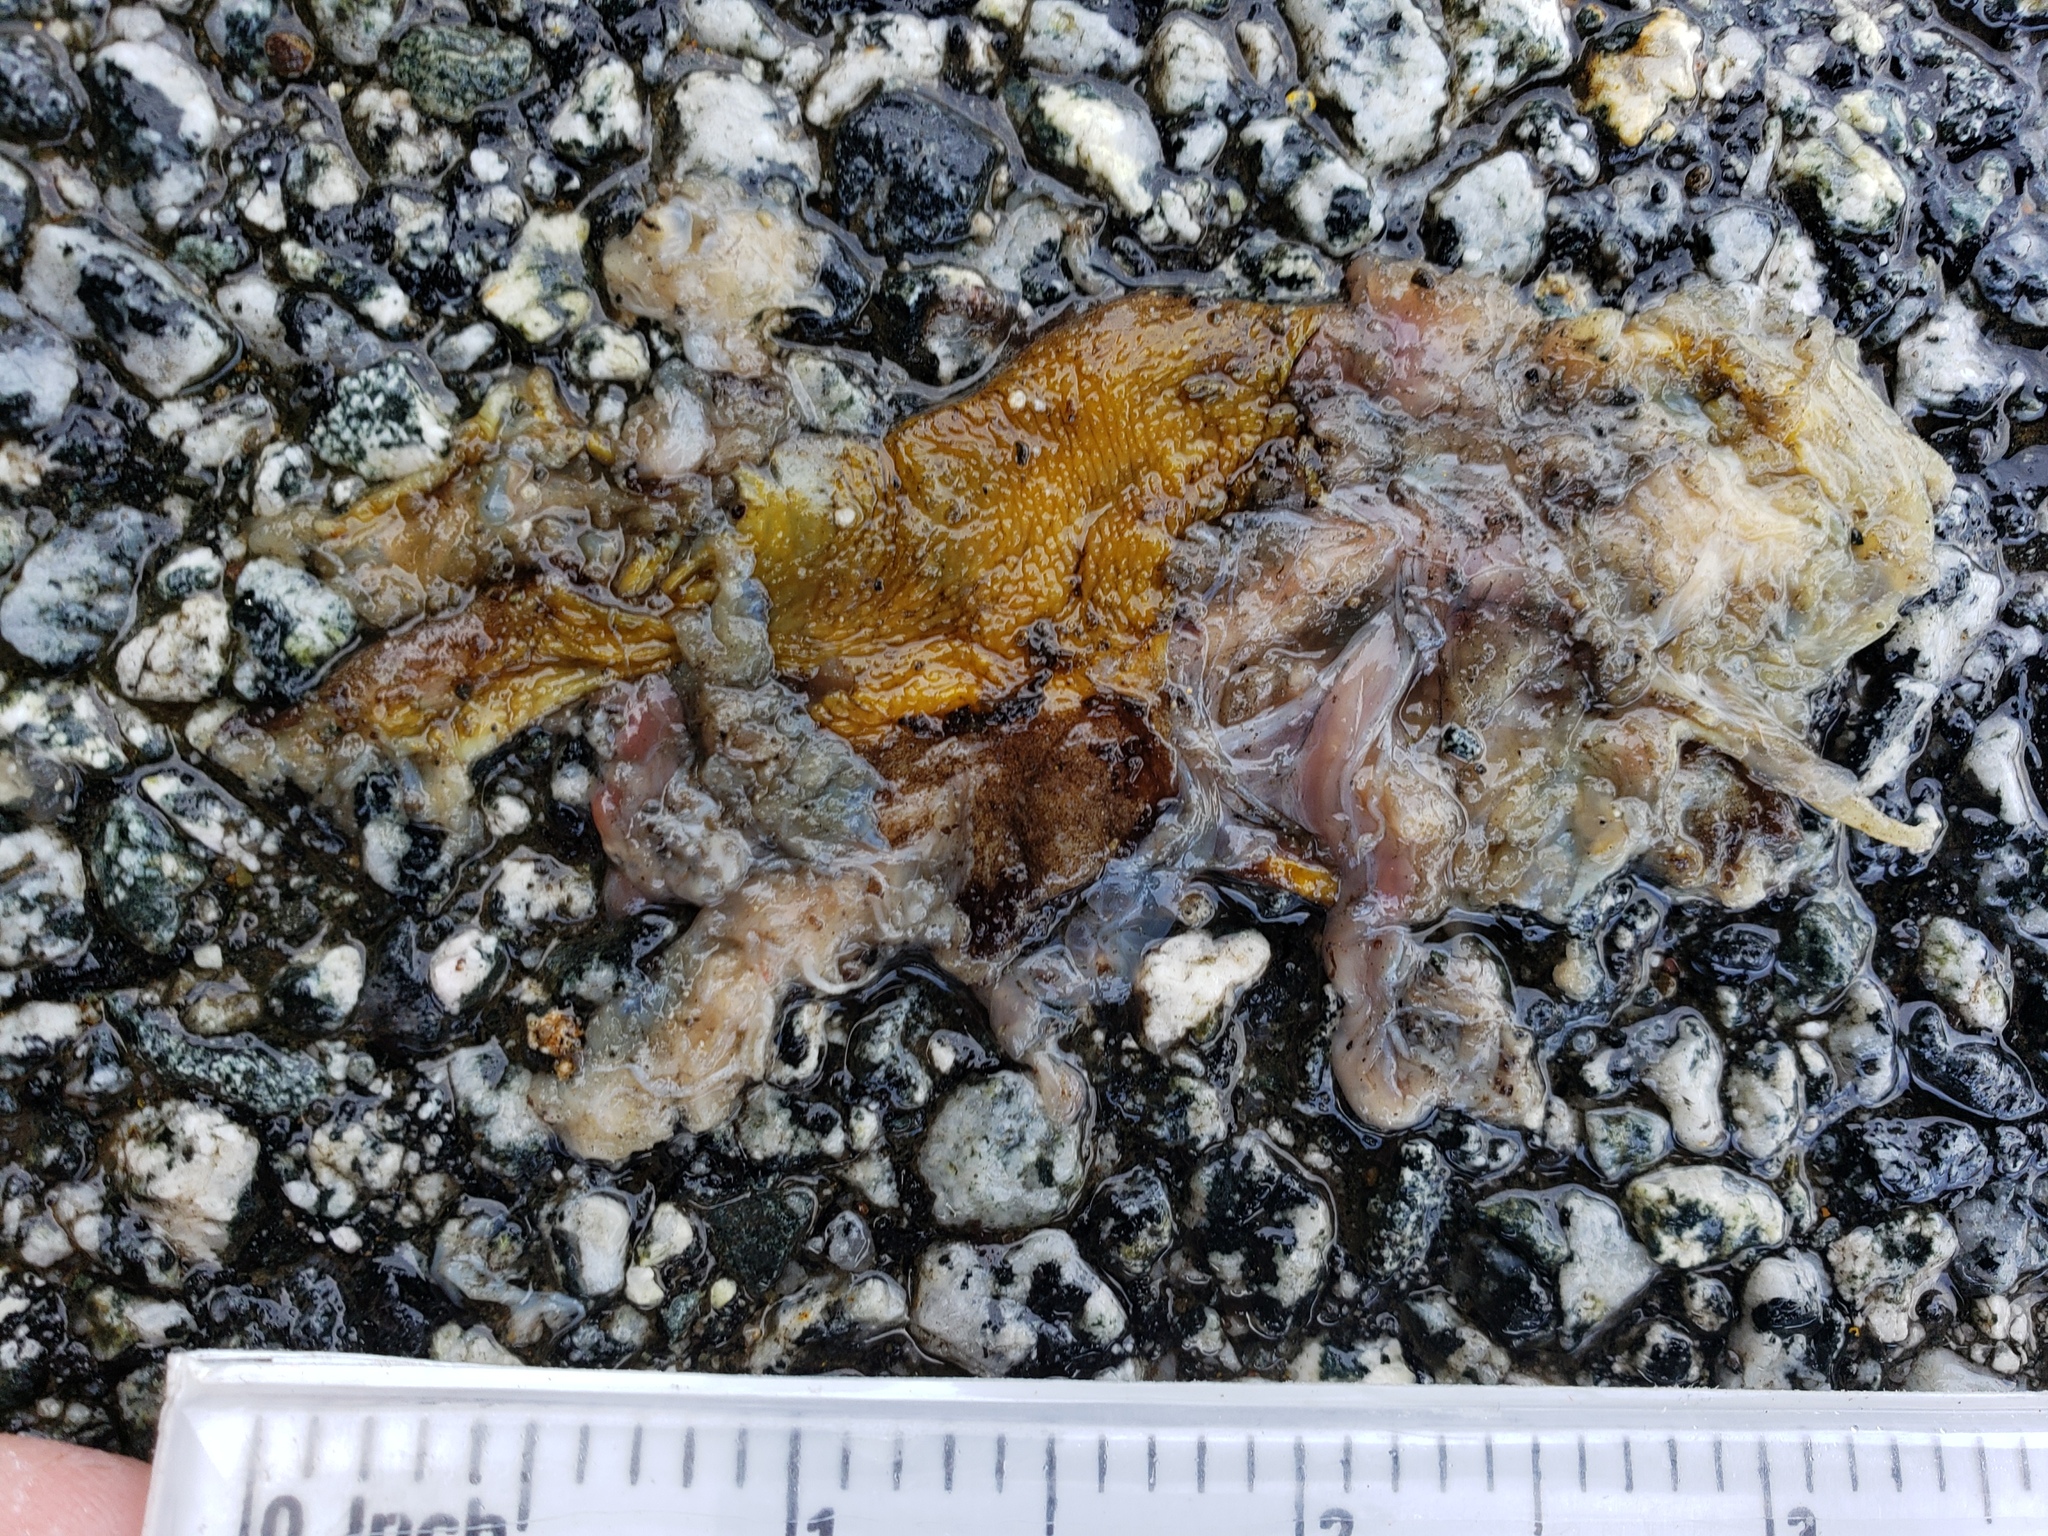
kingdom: Animalia
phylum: Chordata
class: Amphibia
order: Caudata
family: Salamandridae
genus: Taricha
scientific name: Taricha
